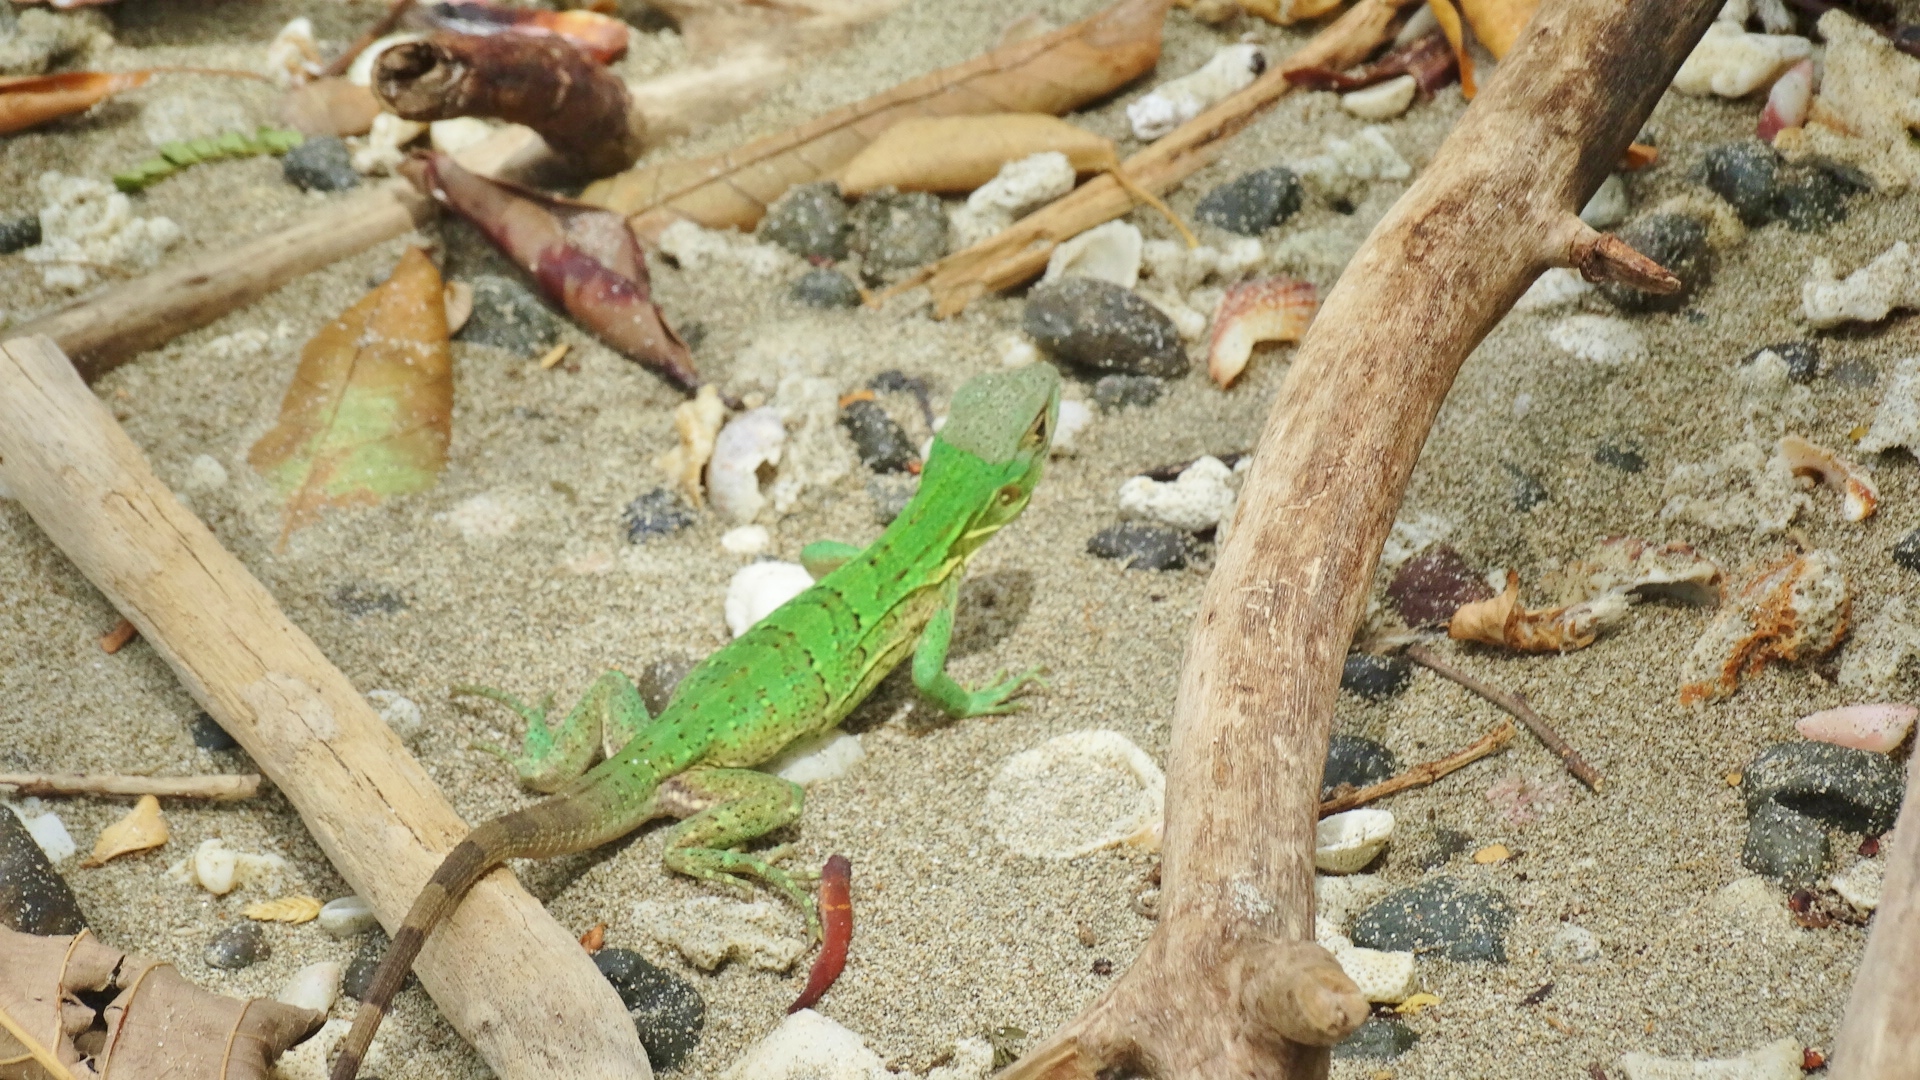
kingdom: Animalia
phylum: Chordata
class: Squamata
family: Iguanidae
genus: Ctenosaura
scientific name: Ctenosaura similis
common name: Black spiny-tailed iguana
